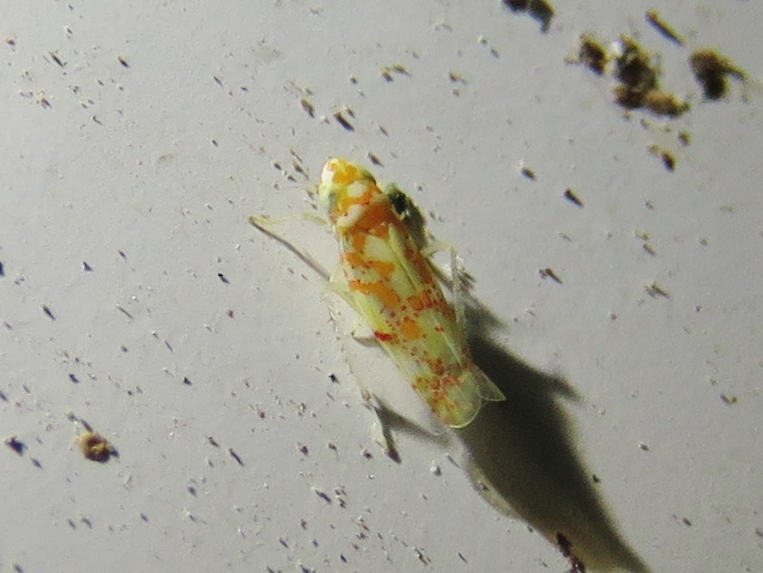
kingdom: Animalia
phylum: Arthropoda
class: Insecta
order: Hemiptera
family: Cicadellidae
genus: Dikrella
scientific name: Dikrella maculata
